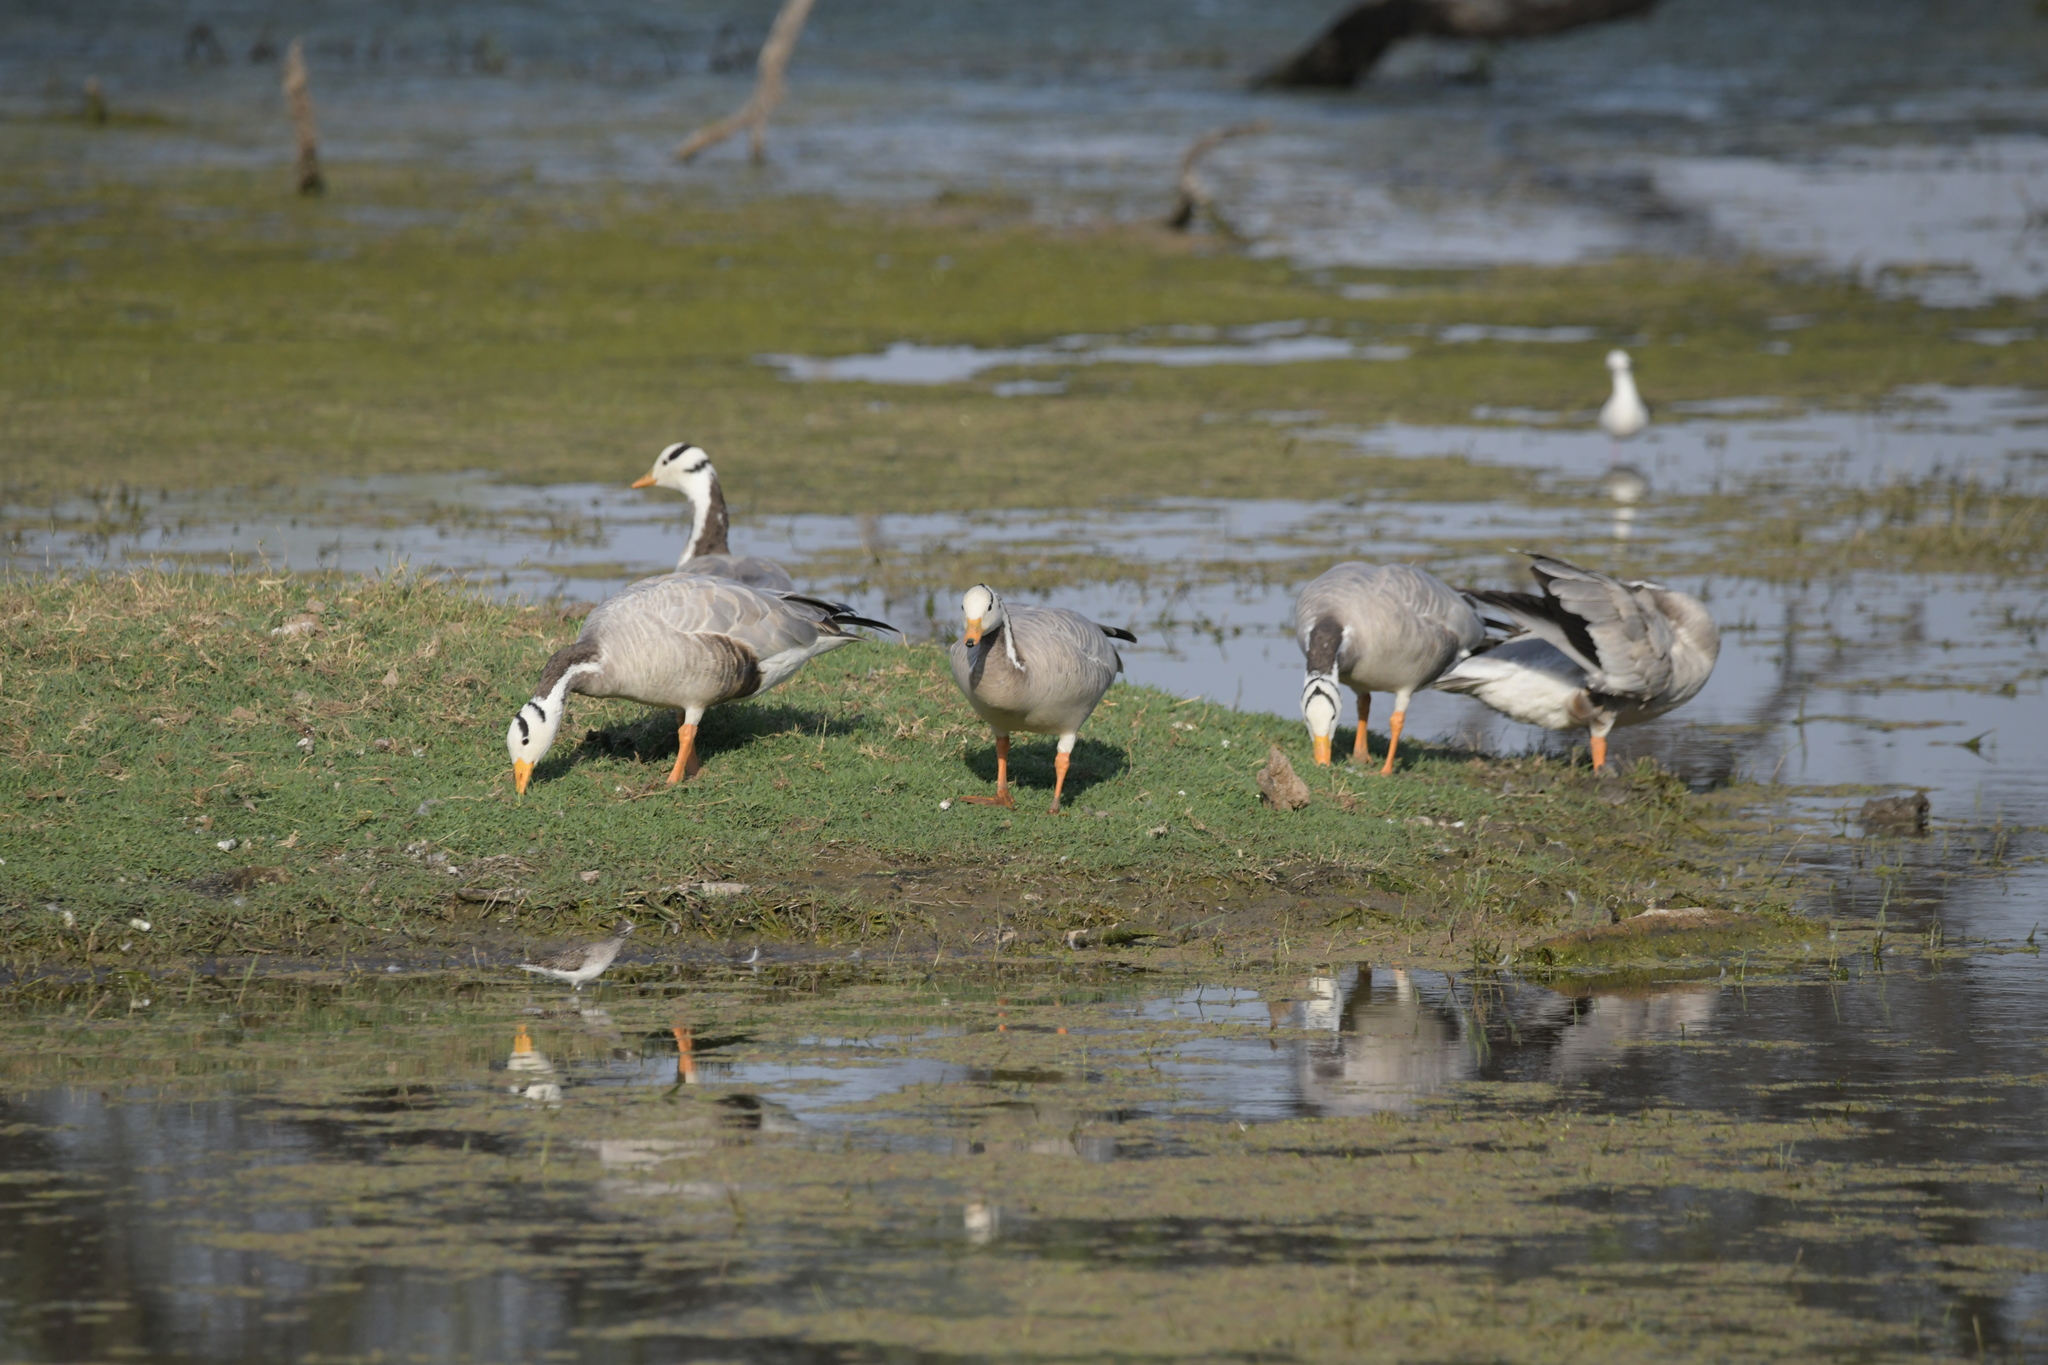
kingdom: Animalia
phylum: Chordata
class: Aves
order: Anseriformes
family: Anatidae
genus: Anser
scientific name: Anser indicus
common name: Bar-headed goose
